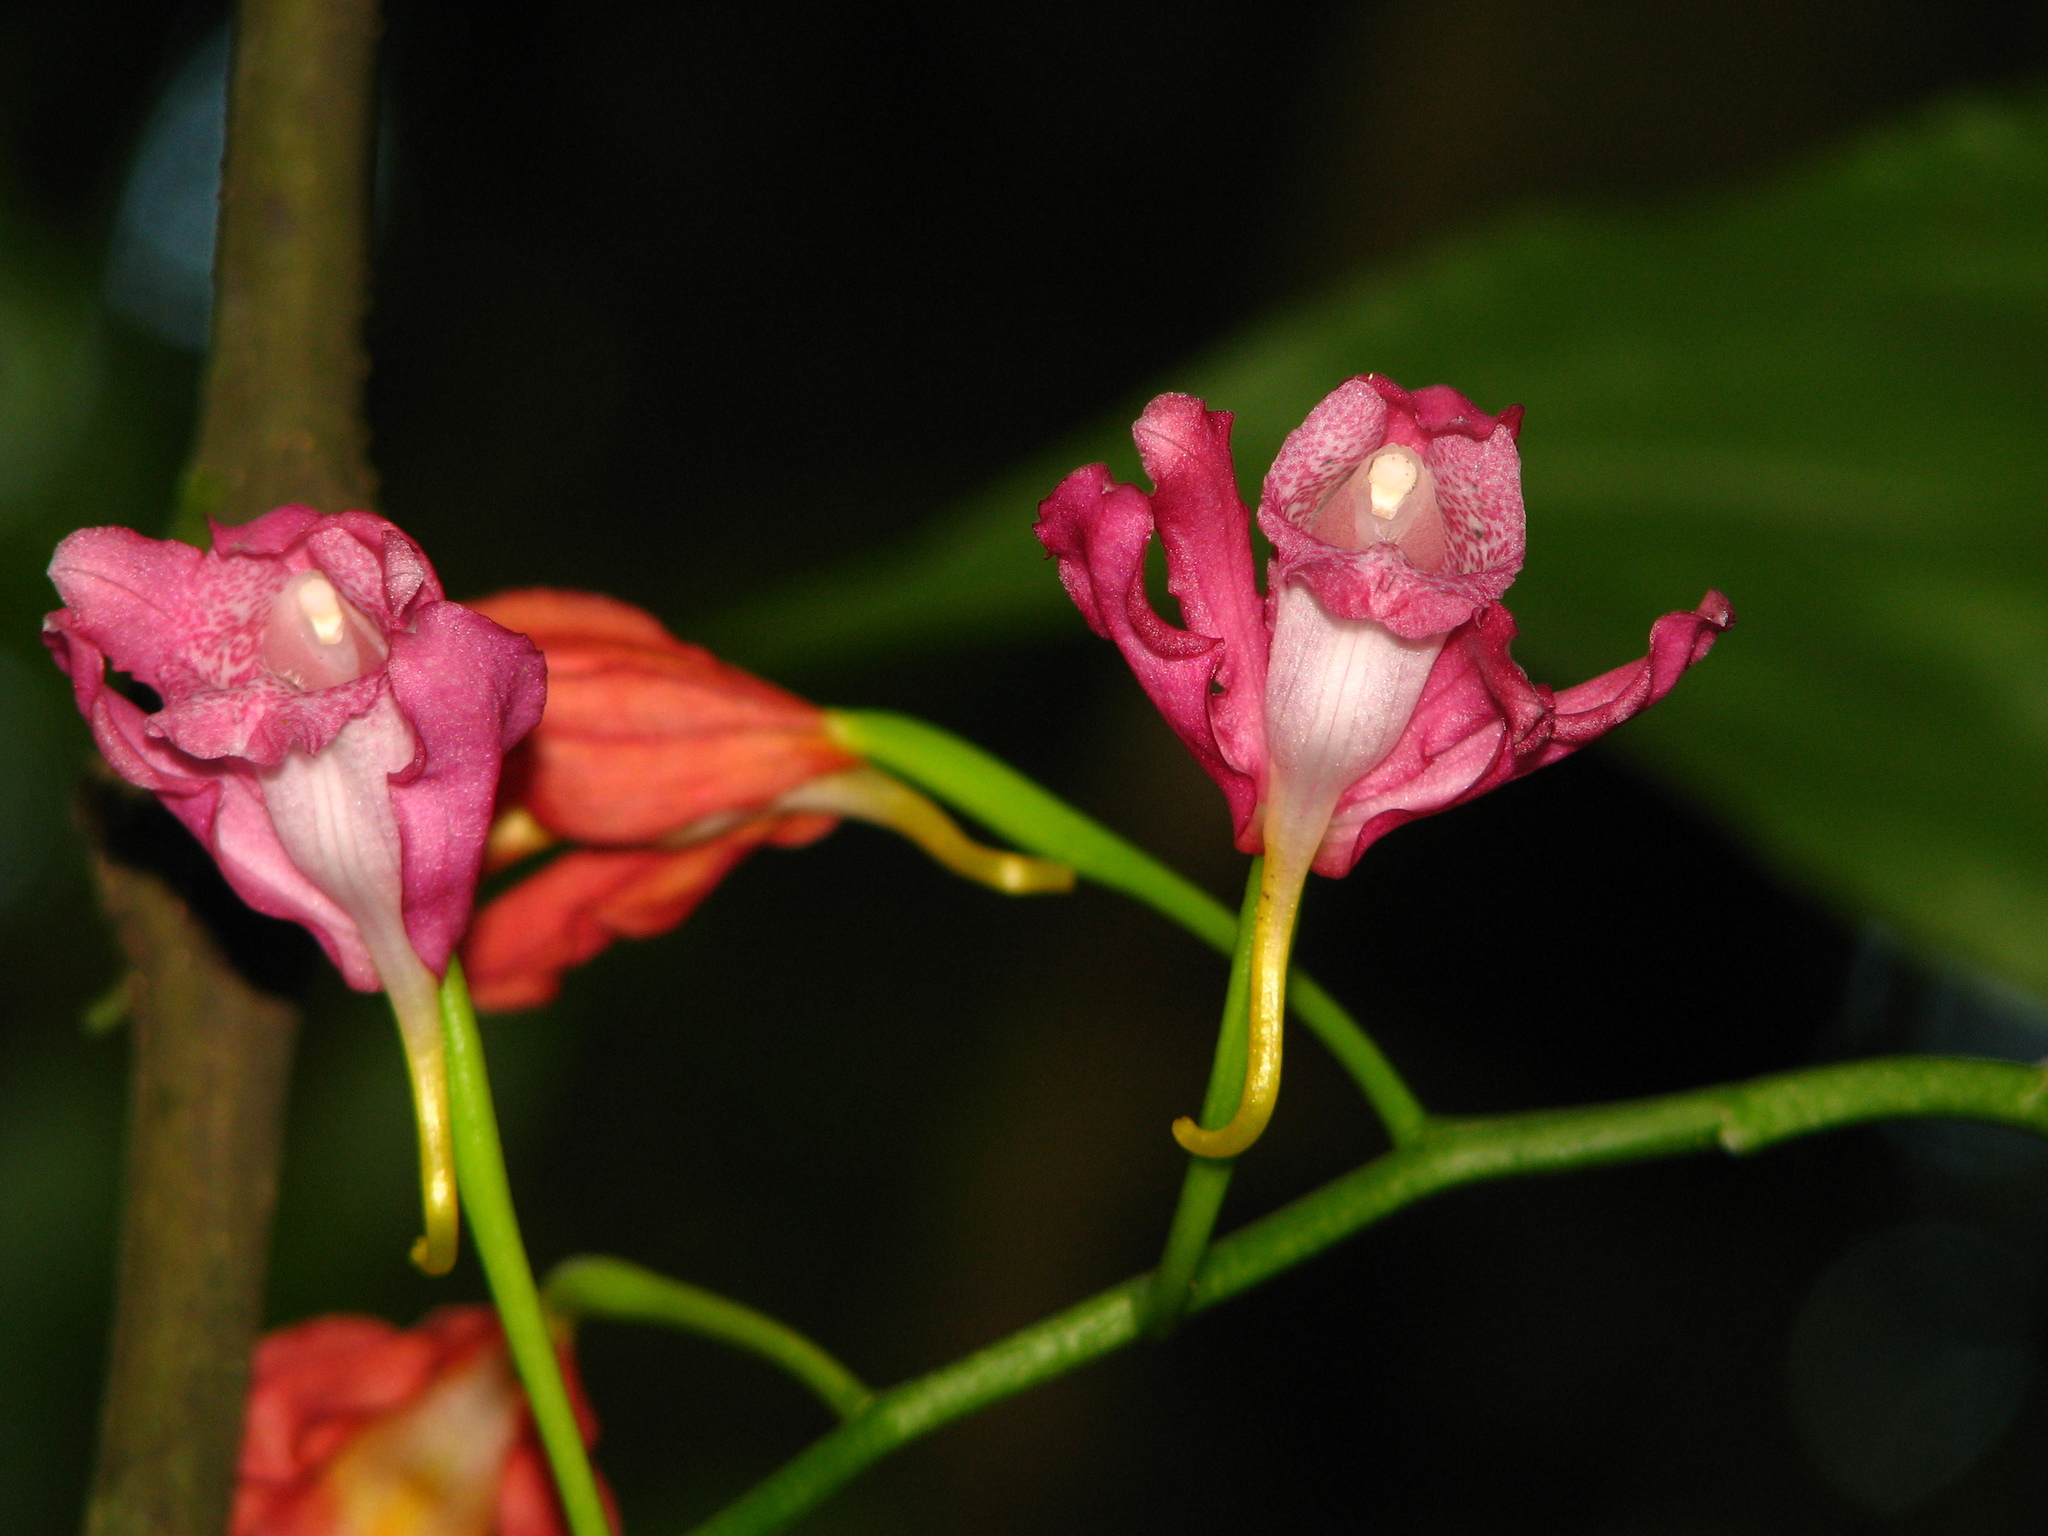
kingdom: Plantae
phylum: Tracheophyta
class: Liliopsida
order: Asparagales
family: Orchidaceae
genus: Calanthe
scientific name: Calanthe mishmensis
